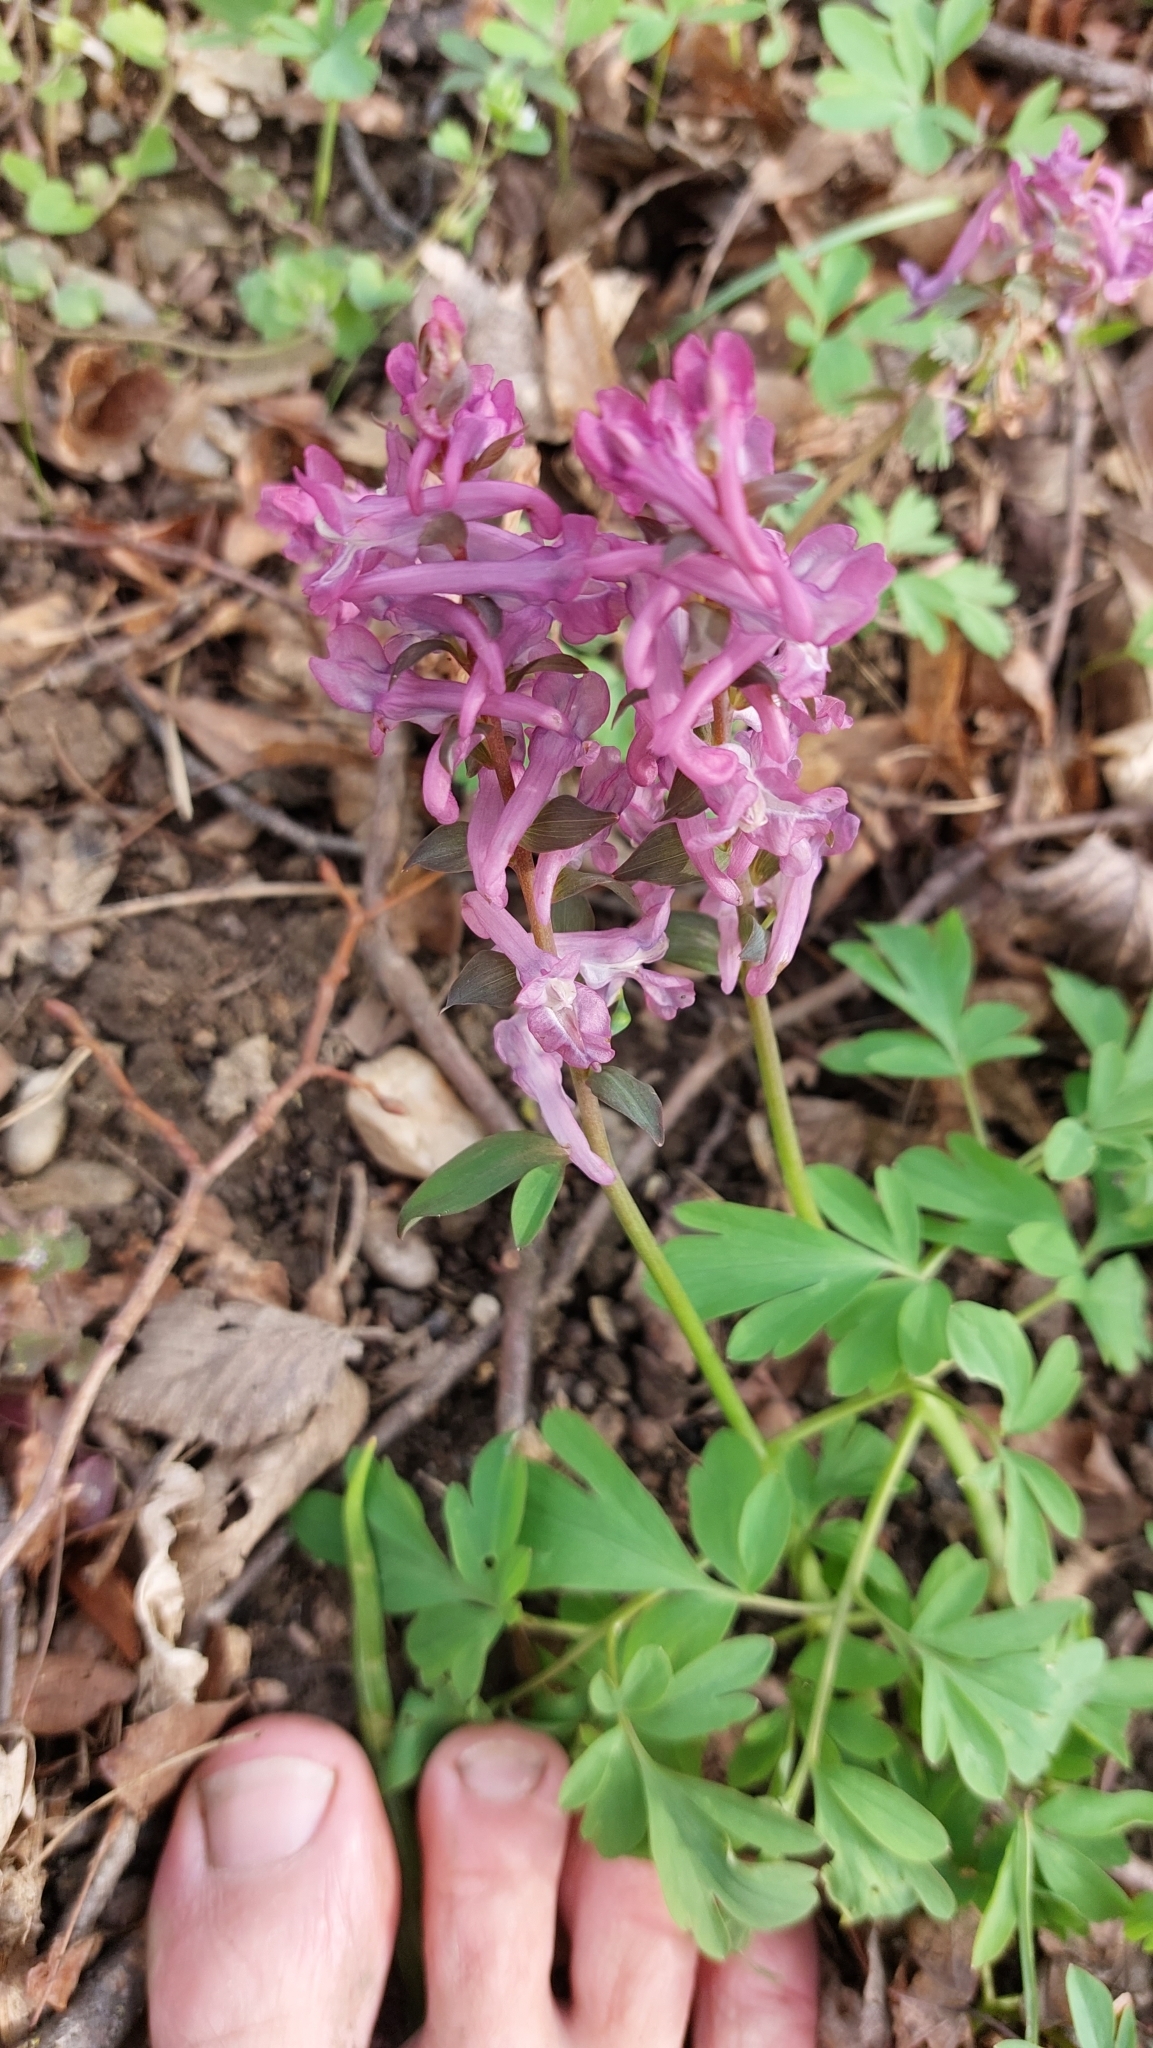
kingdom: Plantae
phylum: Tracheophyta
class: Magnoliopsida
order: Ranunculales
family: Papaveraceae
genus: Corydalis
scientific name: Corydalis cava
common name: Hollowroot
